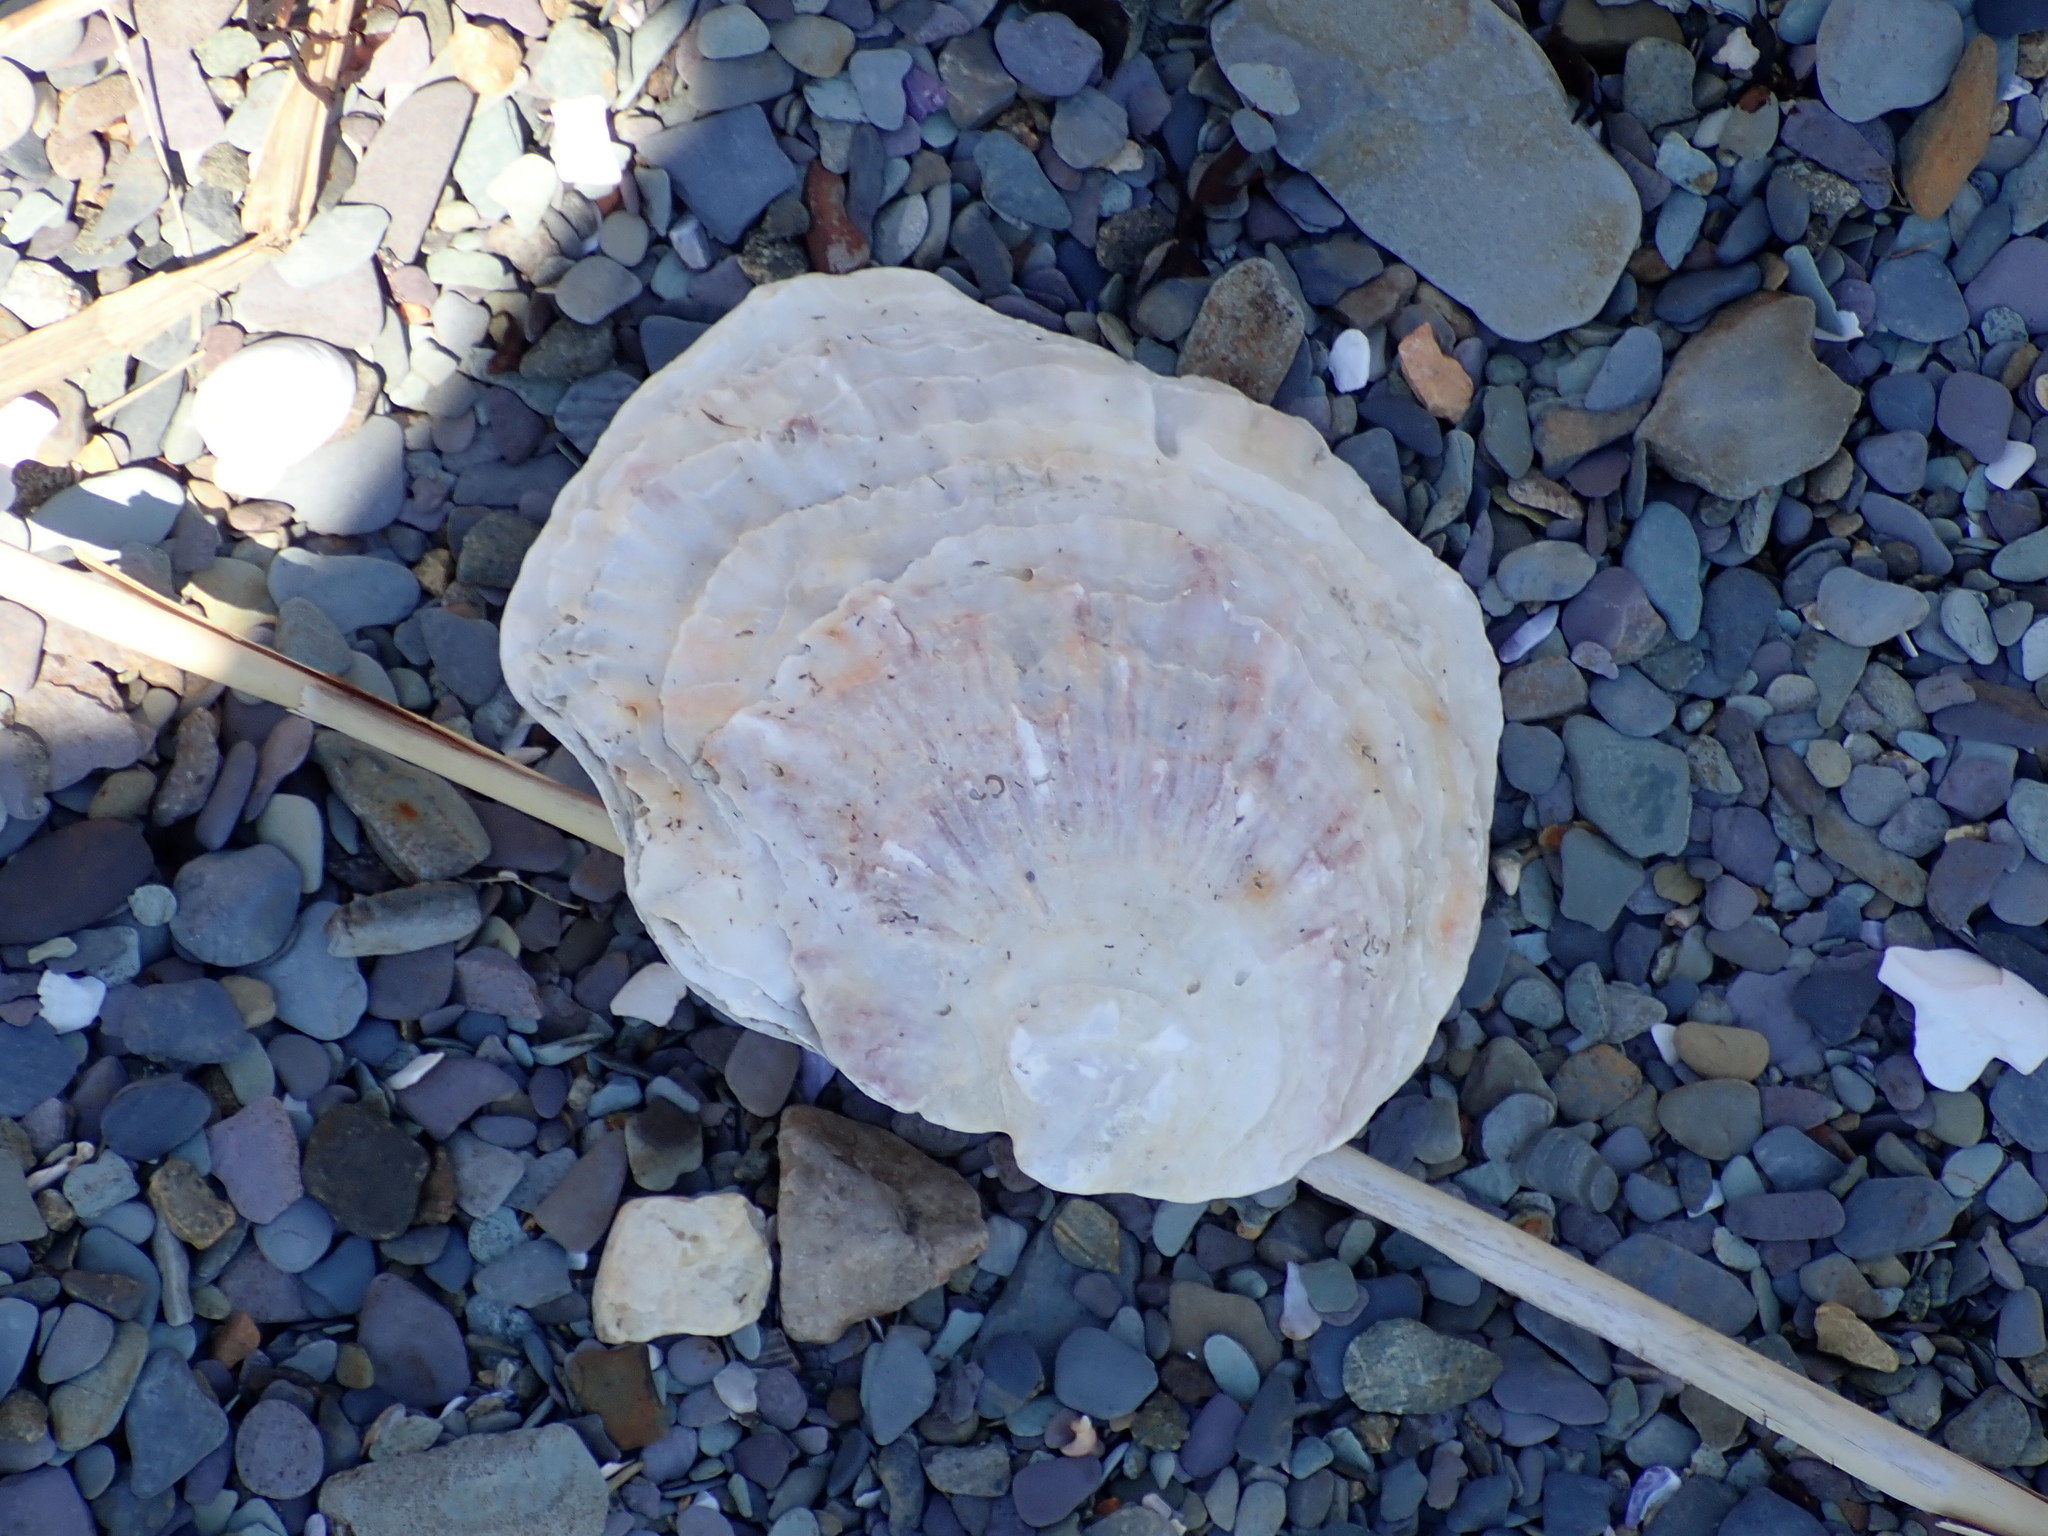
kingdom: Animalia
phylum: Mollusca
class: Bivalvia
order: Ostreida
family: Ostreidae
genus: Ostrea
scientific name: Ostrea edulis
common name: Flat oyster
